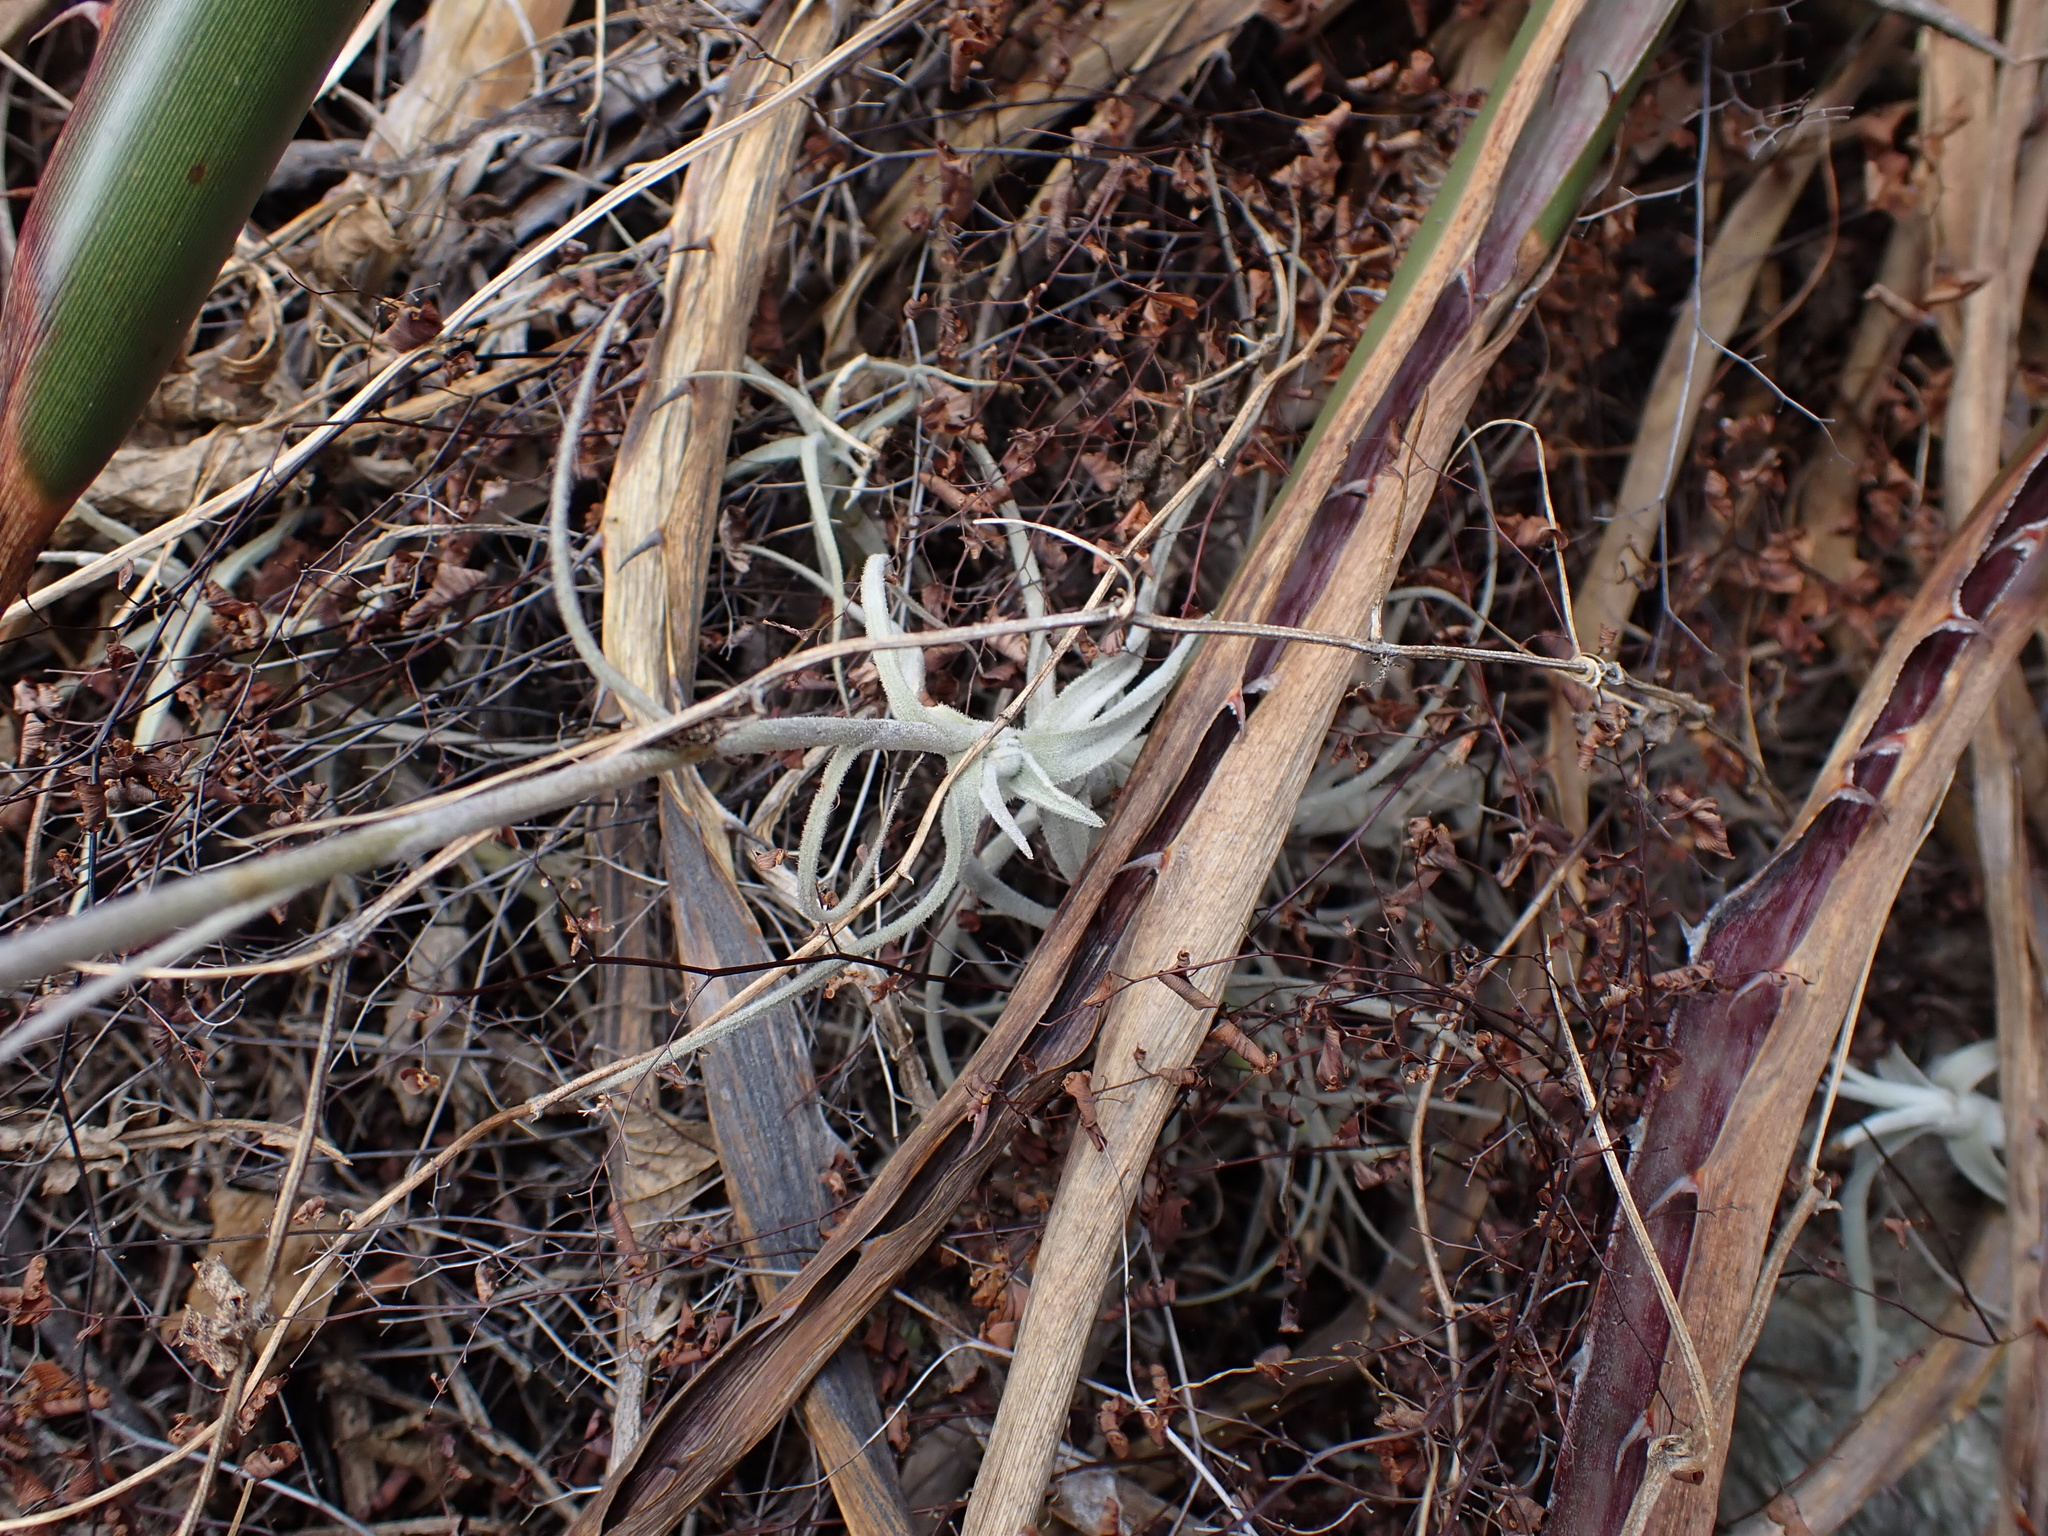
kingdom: Plantae
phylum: Tracheophyta
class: Liliopsida
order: Poales
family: Bromeliaceae
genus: Tillandsia
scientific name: Tillandsia paleacea
